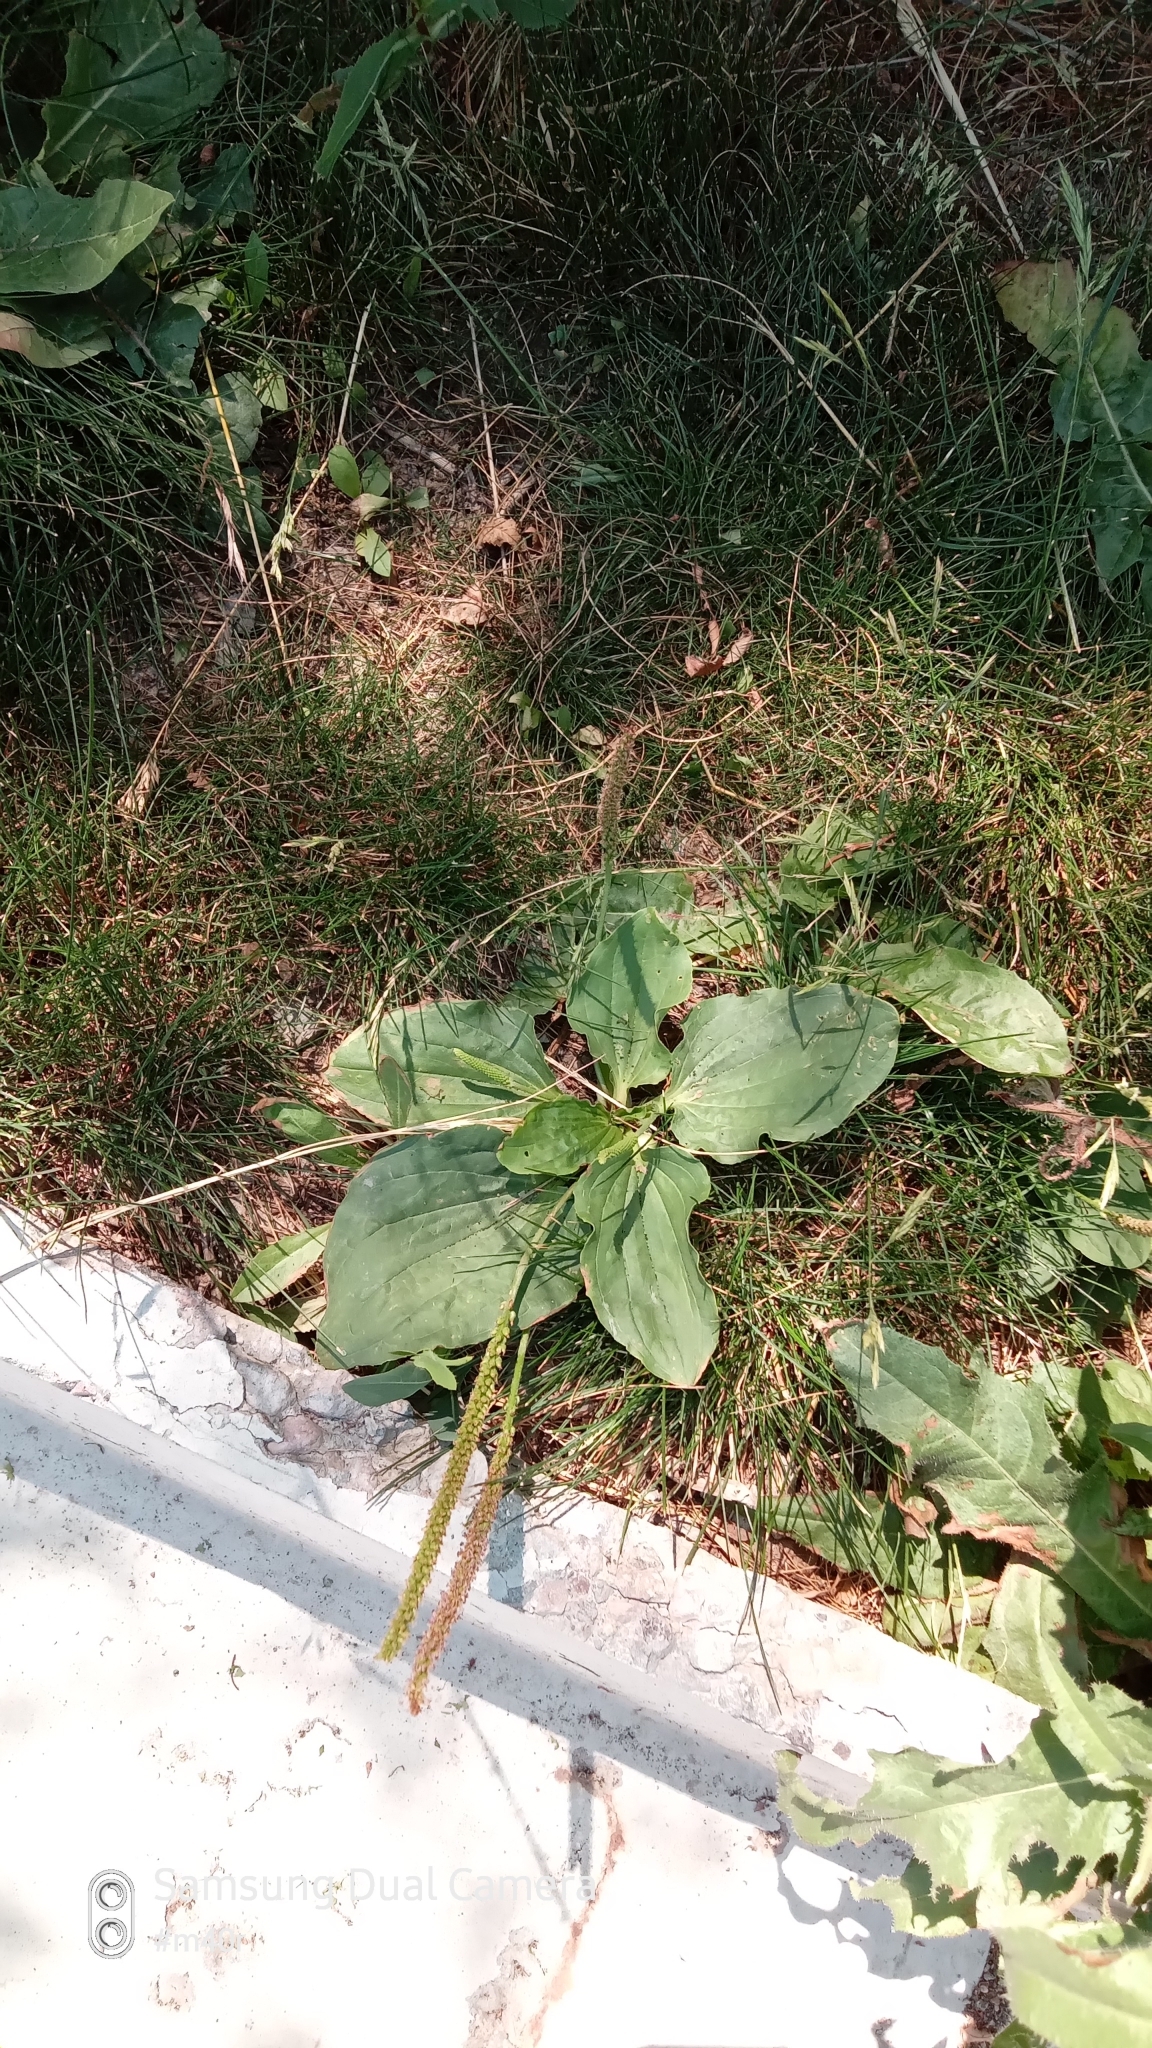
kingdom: Plantae
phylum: Tracheophyta
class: Magnoliopsida
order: Lamiales
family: Plantaginaceae
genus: Plantago
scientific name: Plantago major
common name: Common plantain
